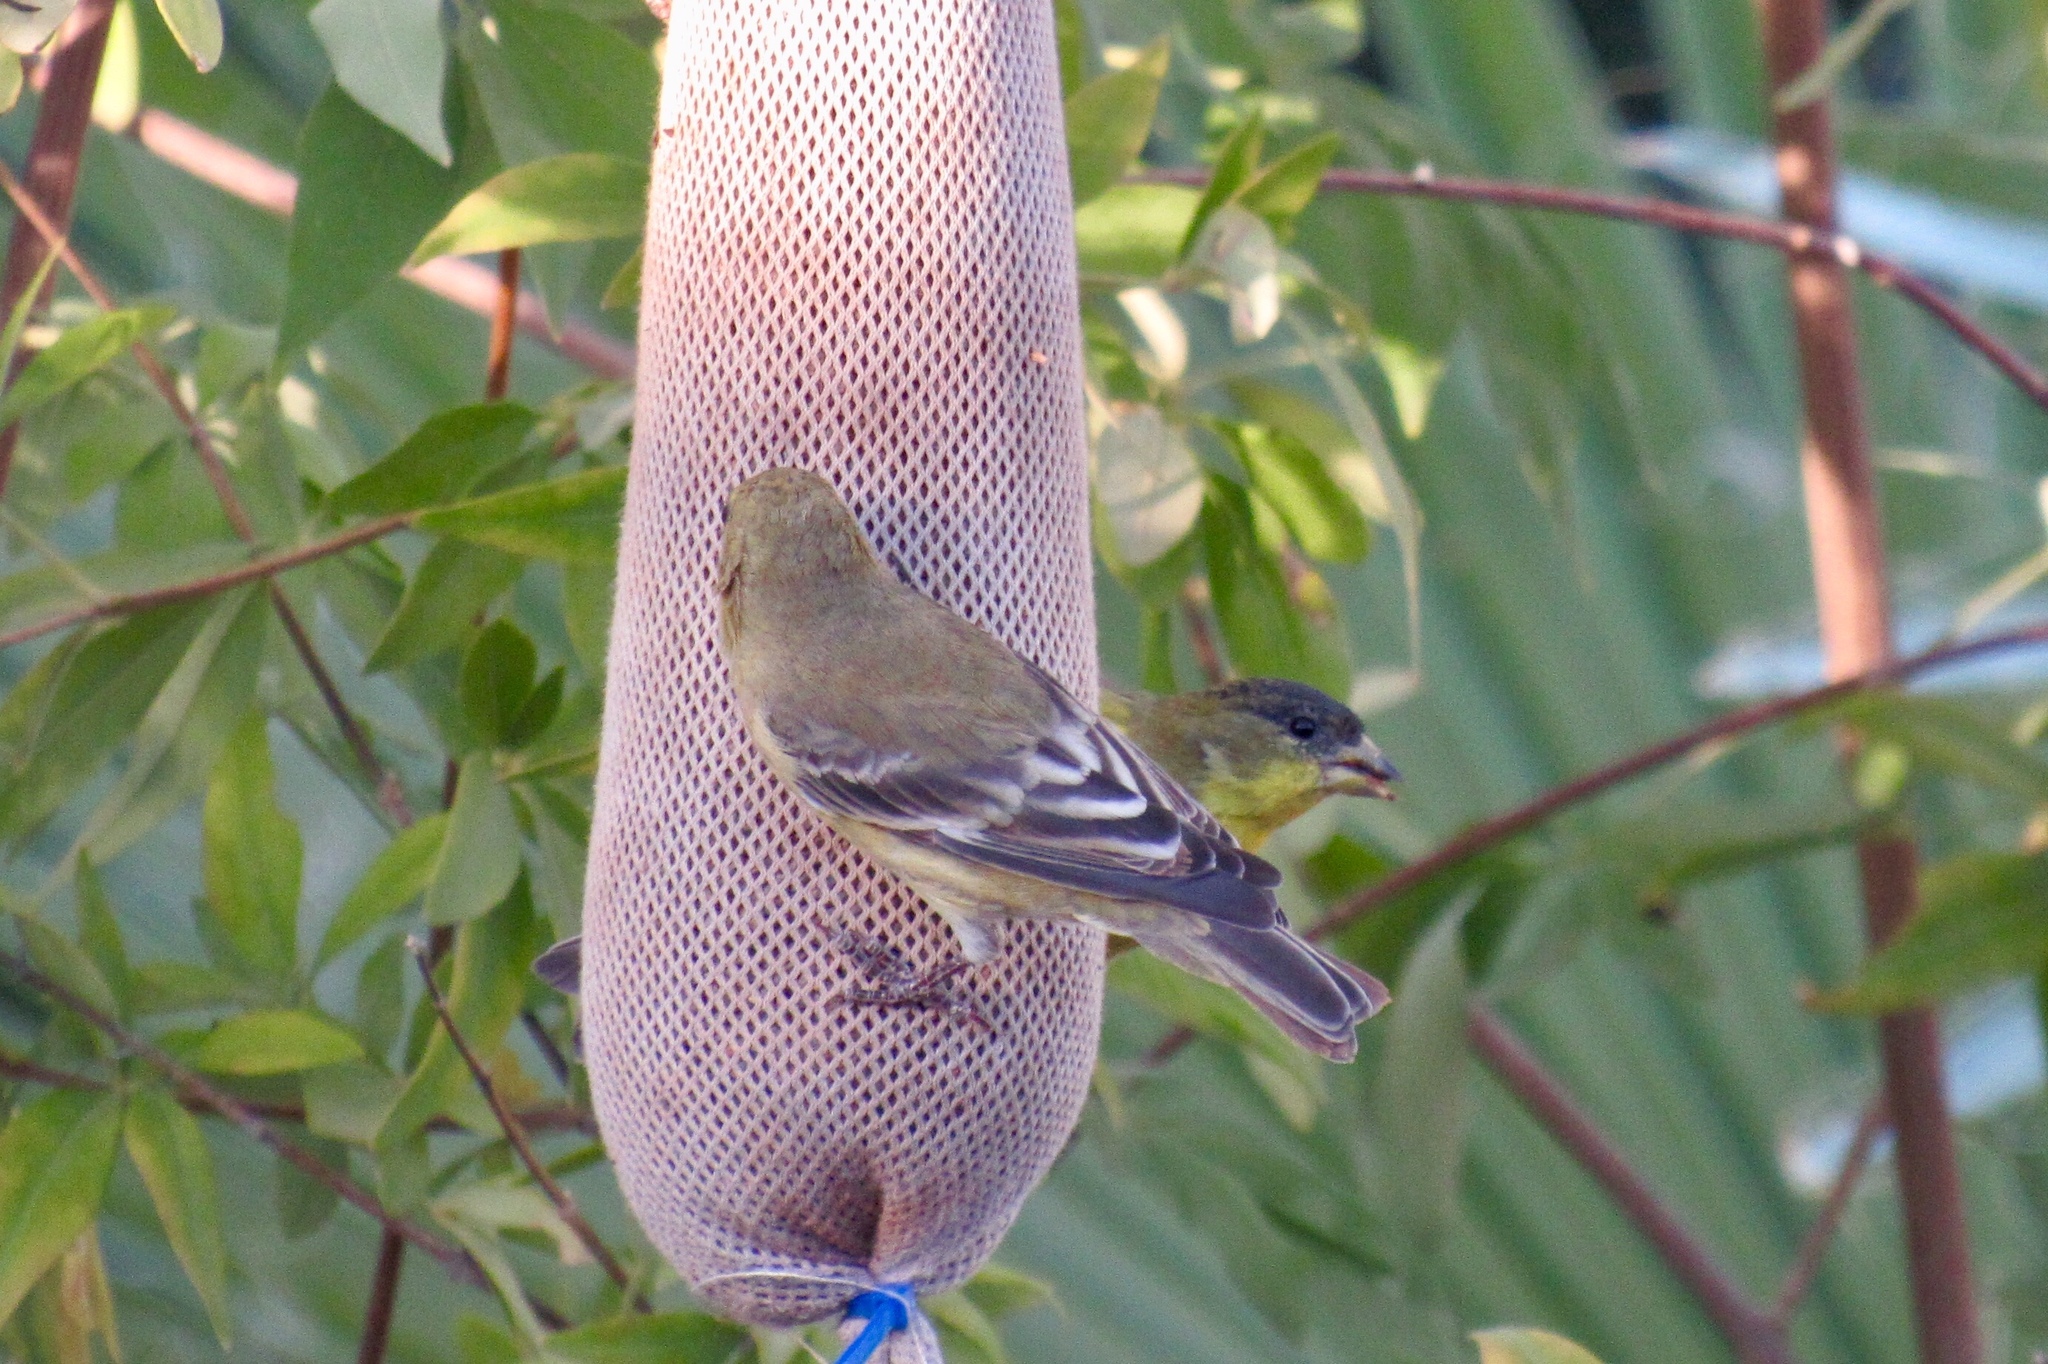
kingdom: Animalia
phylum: Chordata
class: Aves
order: Passeriformes
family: Fringillidae
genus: Spinus
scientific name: Spinus psaltria
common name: Lesser goldfinch
